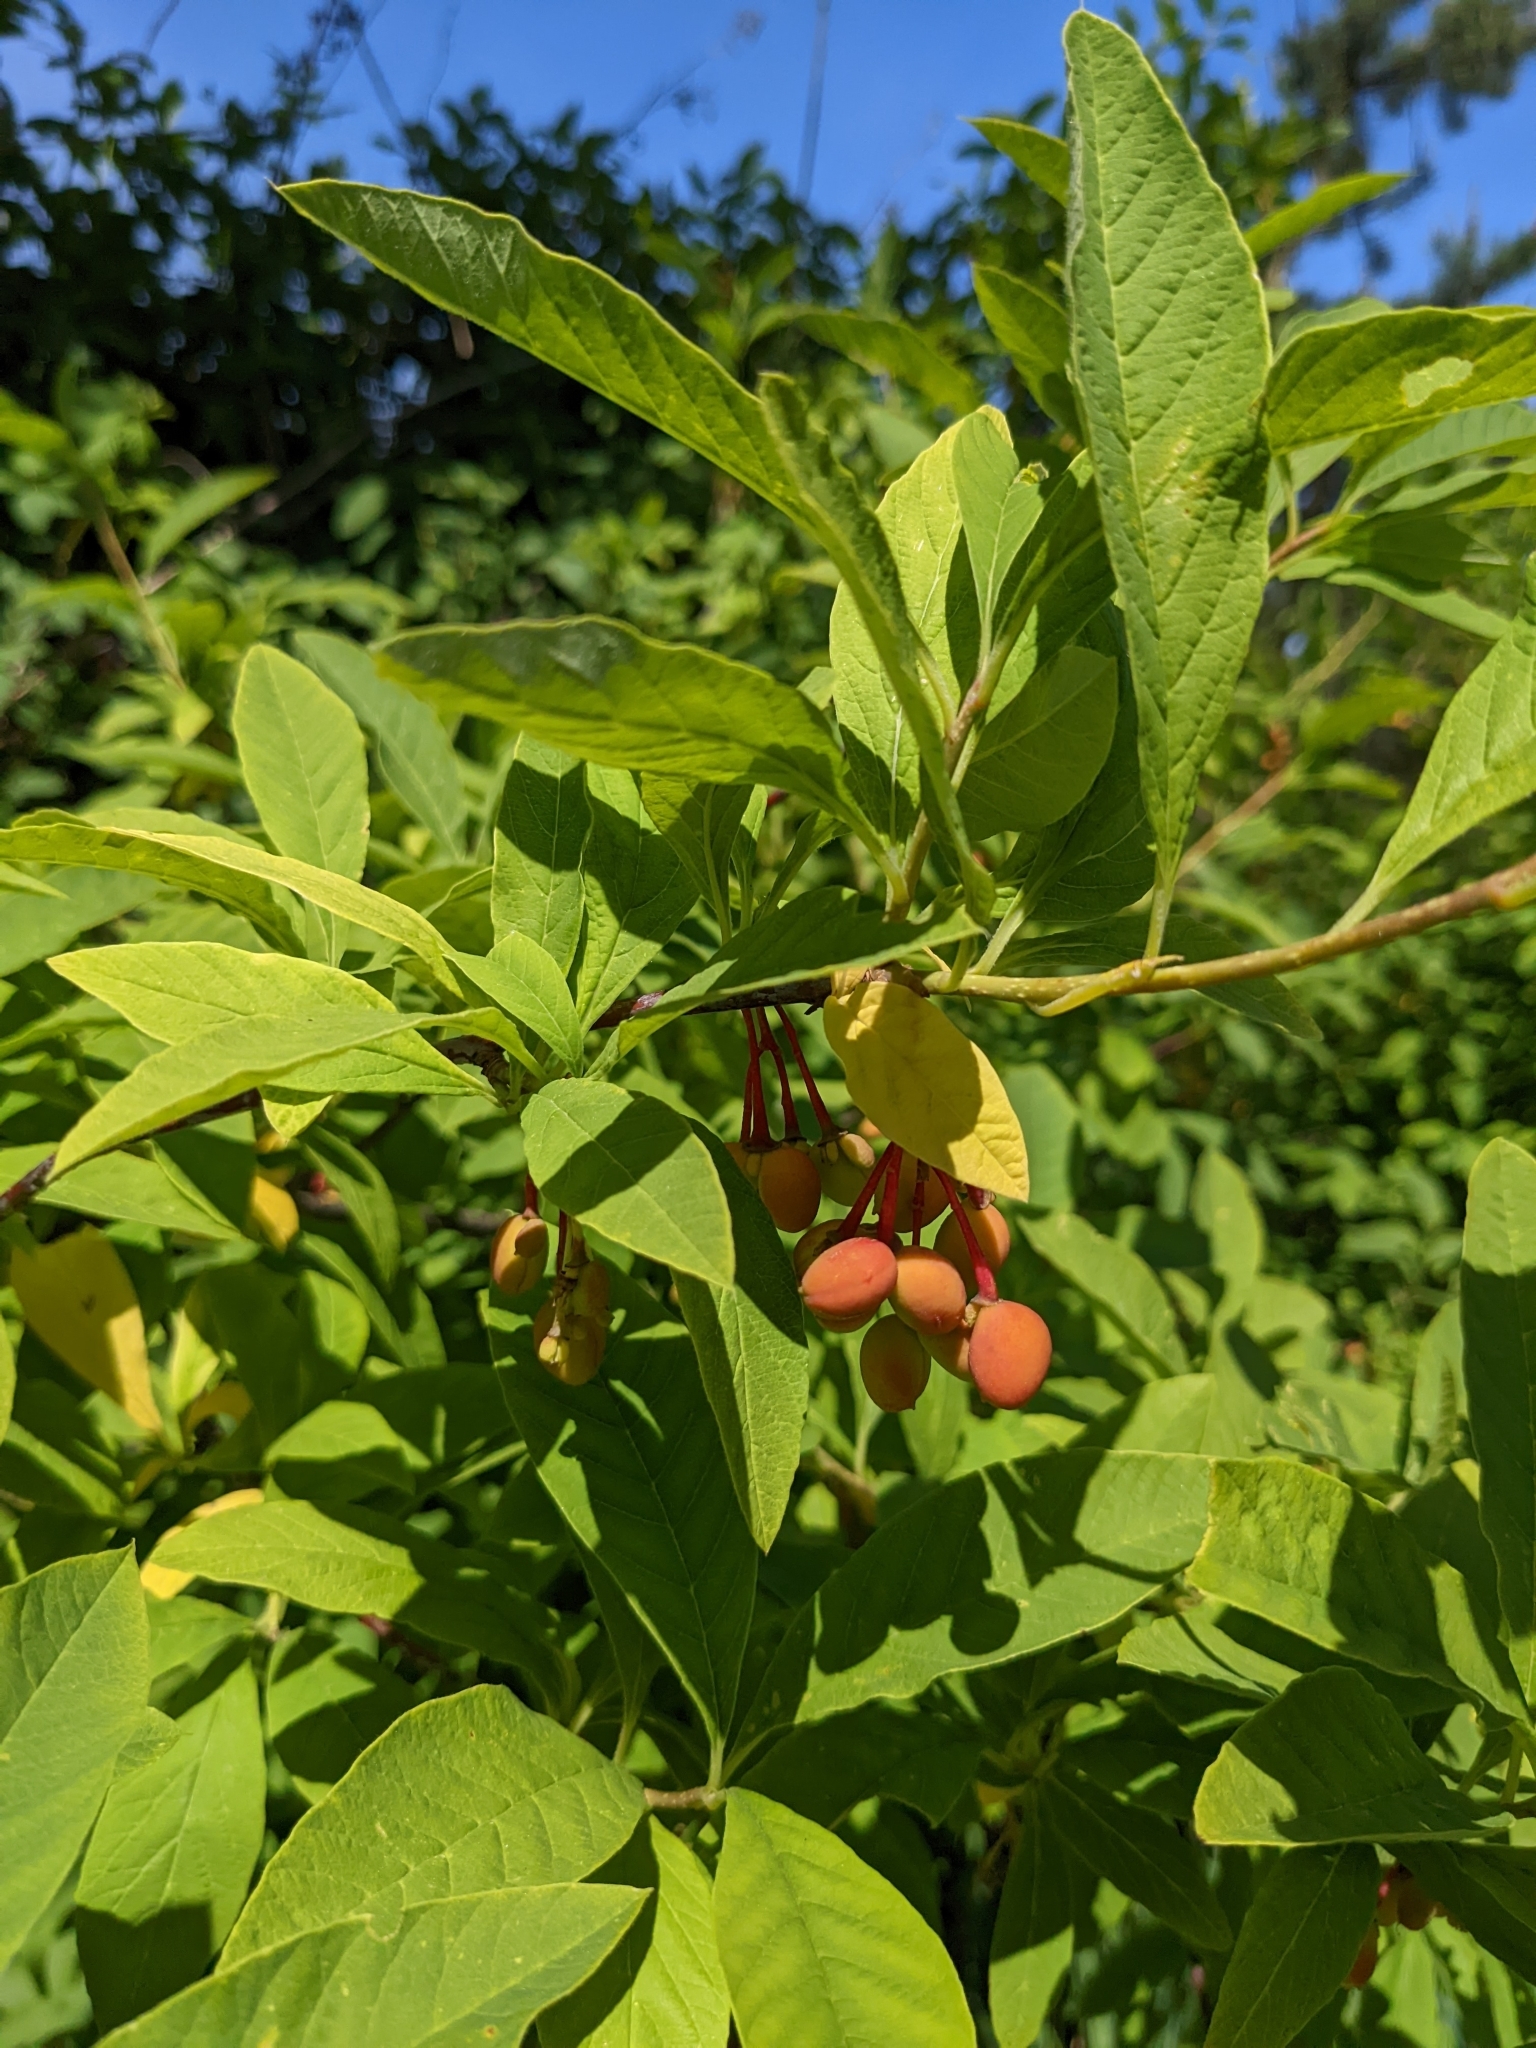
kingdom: Plantae
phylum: Tracheophyta
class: Magnoliopsida
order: Rosales
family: Rosaceae
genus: Oemleria
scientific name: Oemleria cerasiformis
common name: Osoberry
